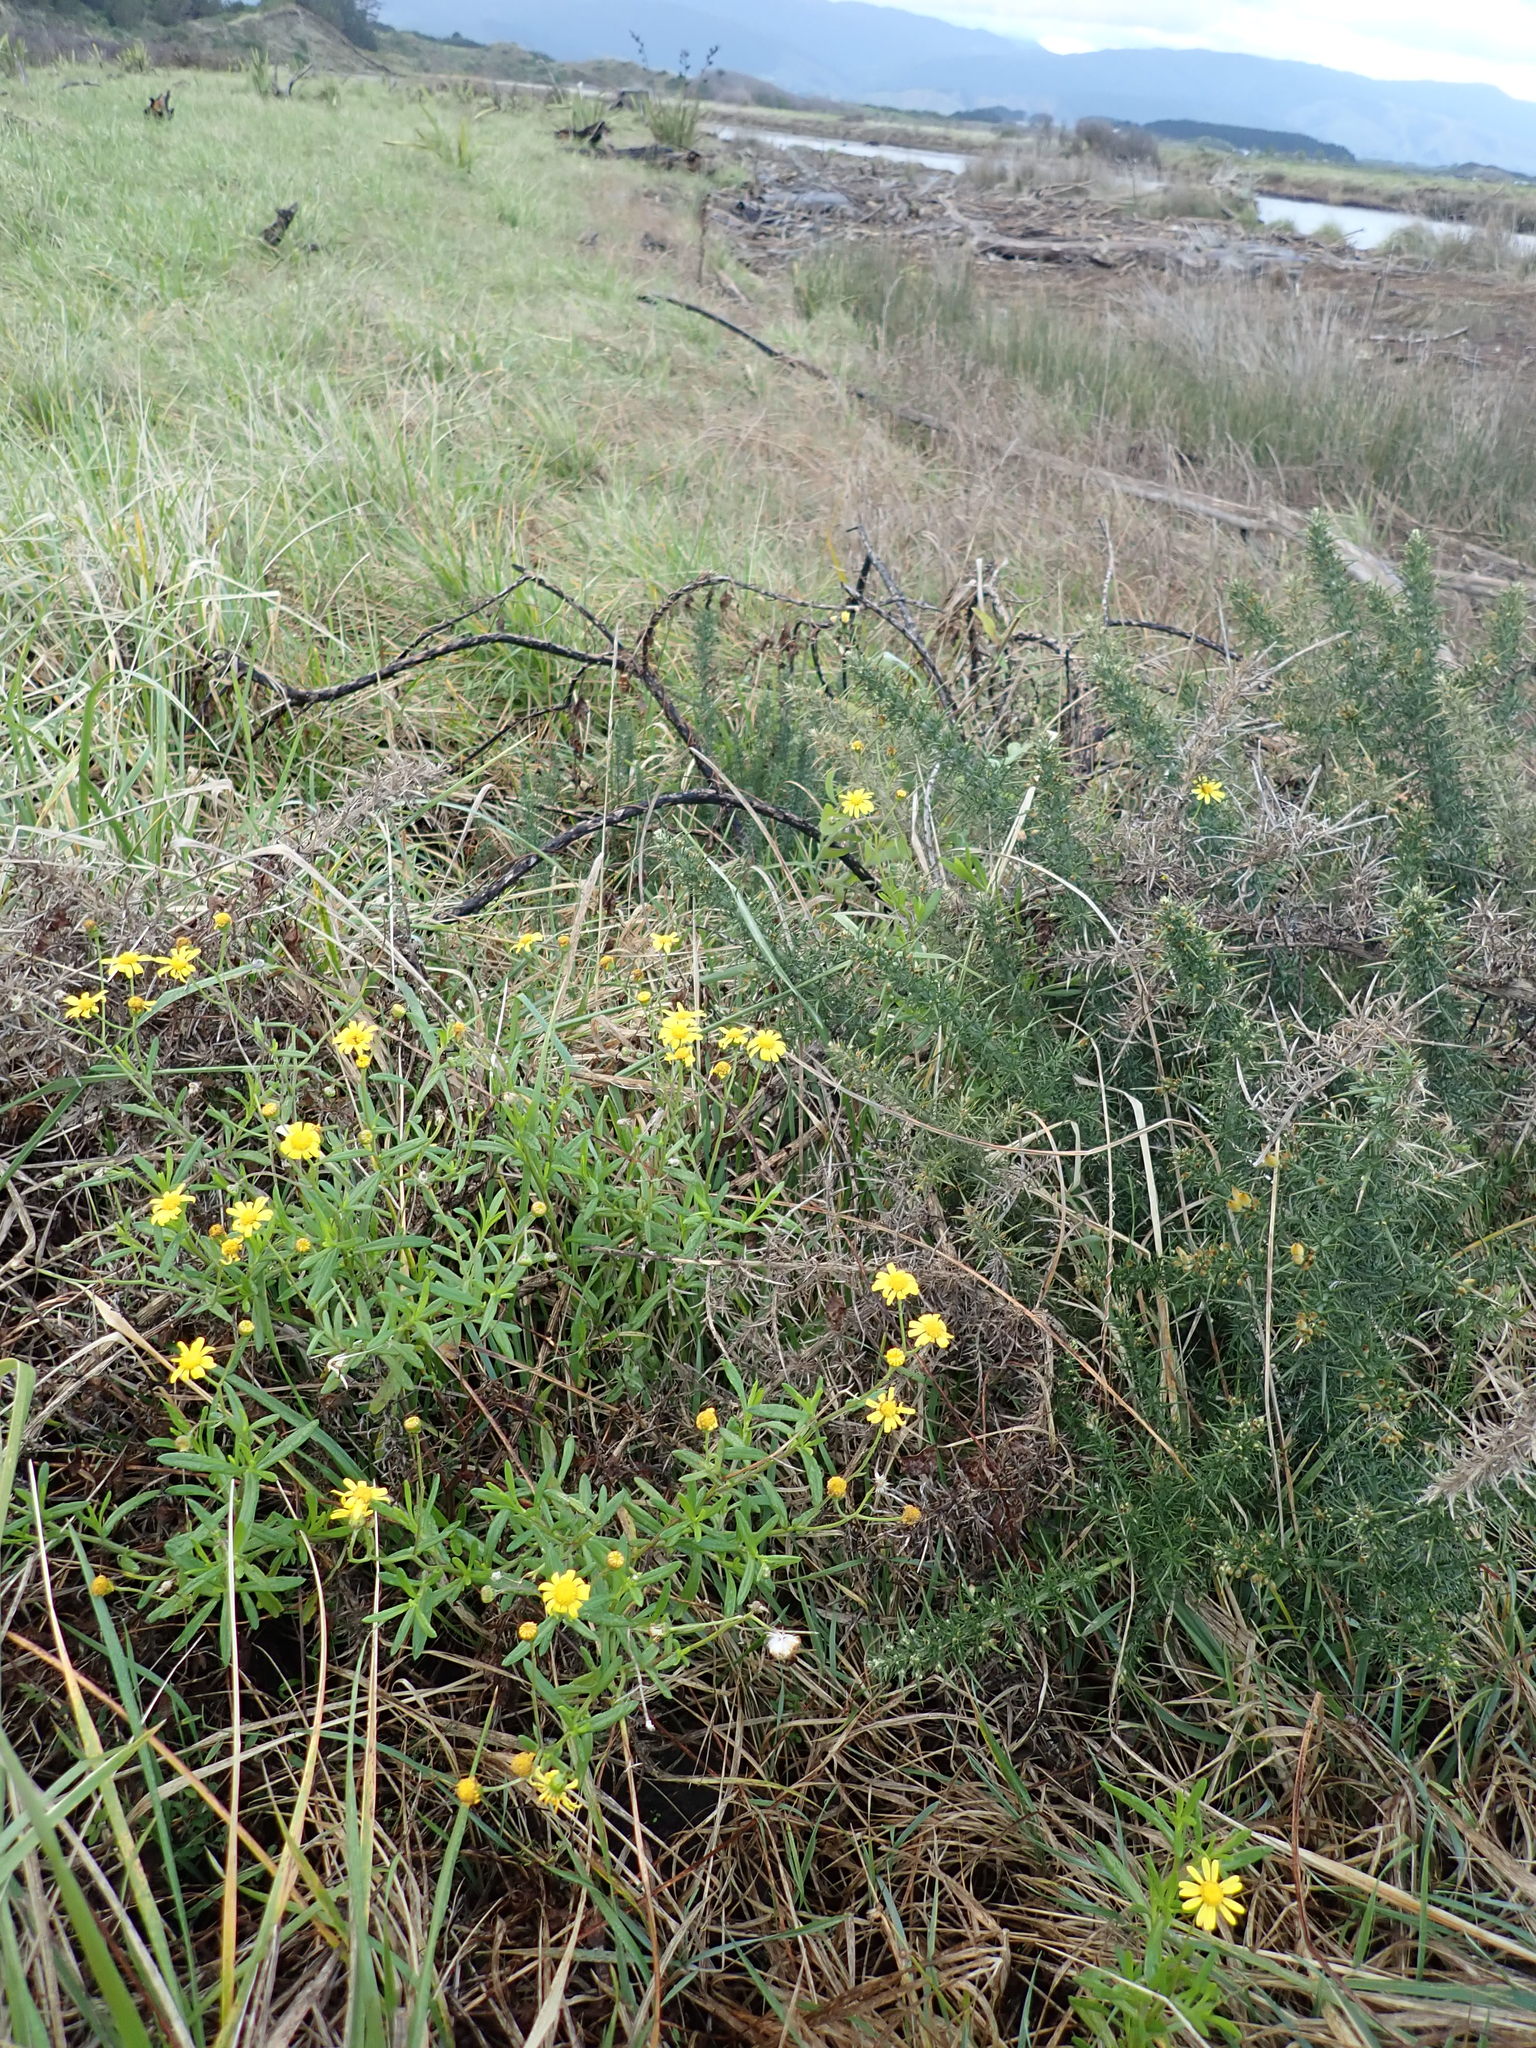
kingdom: Plantae
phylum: Tracheophyta
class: Magnoliopsida
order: Asterales
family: Asteraceae
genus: Senecio
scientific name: Senecio skirrhodon
